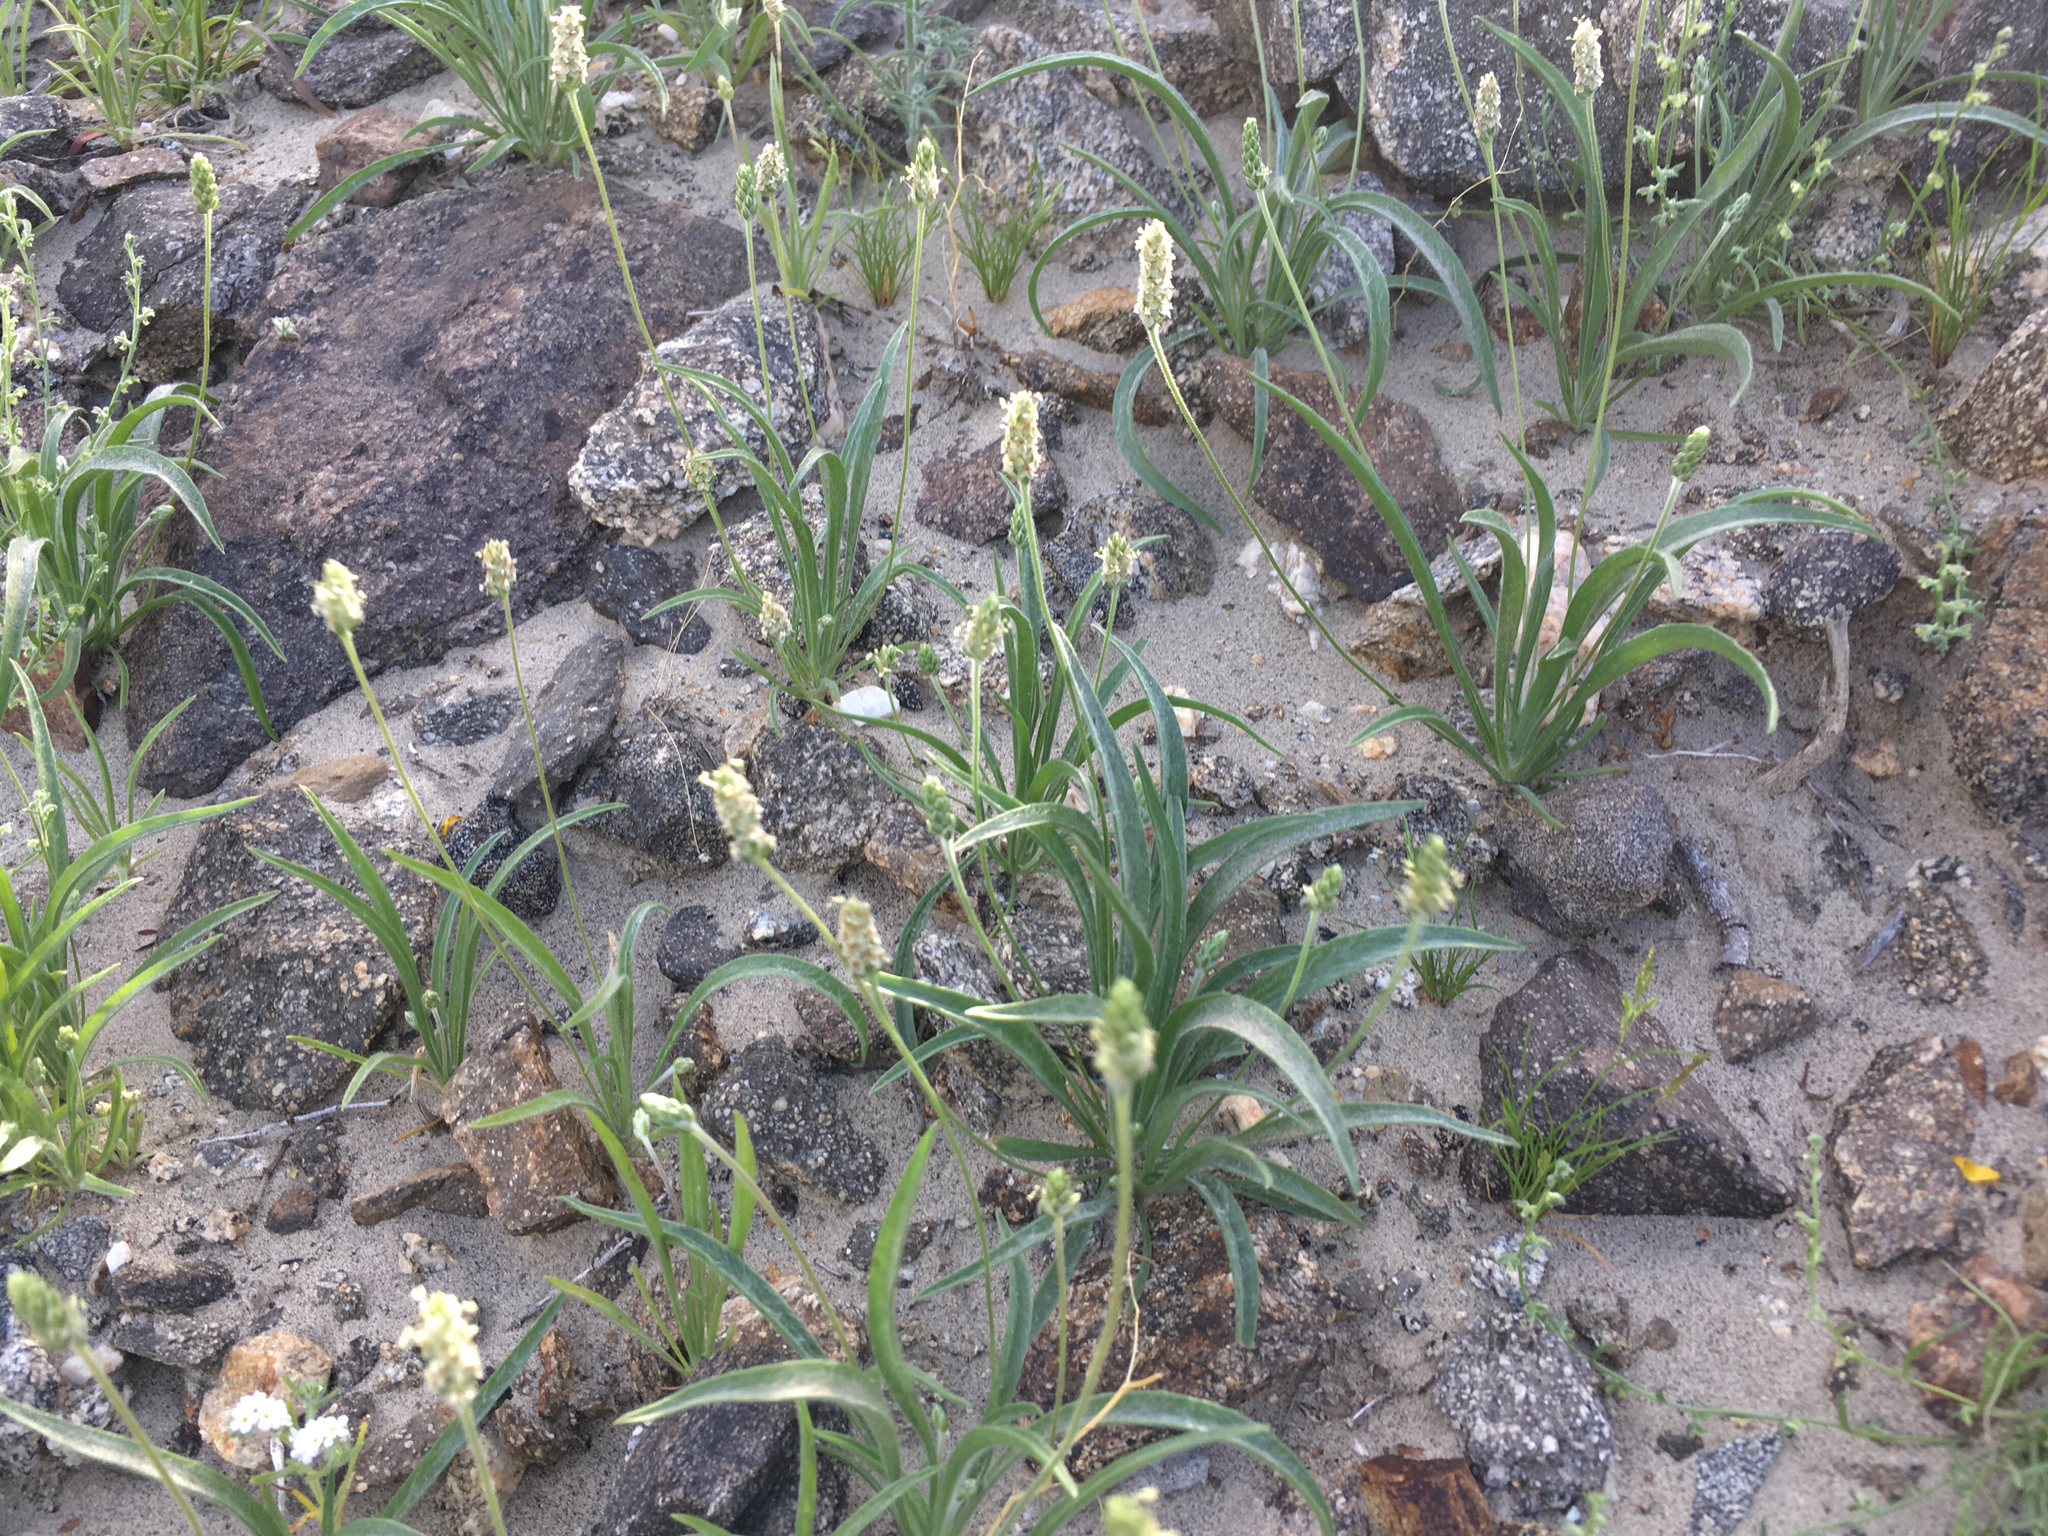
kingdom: Plantae
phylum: Tracheophyta
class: Magnoliopsida
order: Lamiales
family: Plantaginaceae
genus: Plantago
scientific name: Plantago ovata
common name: Blond plantain
